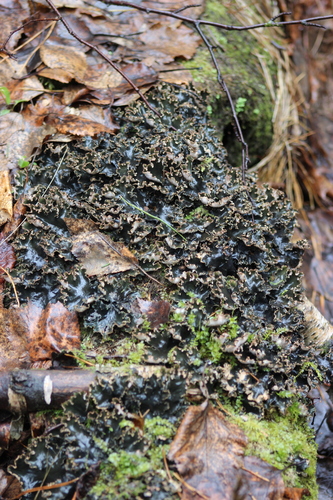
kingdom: Fungi
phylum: Ascomycota
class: Lecanoromycetes
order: Peltigerales
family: Peltigeraceae
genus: Peltigera
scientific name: Peltigera
